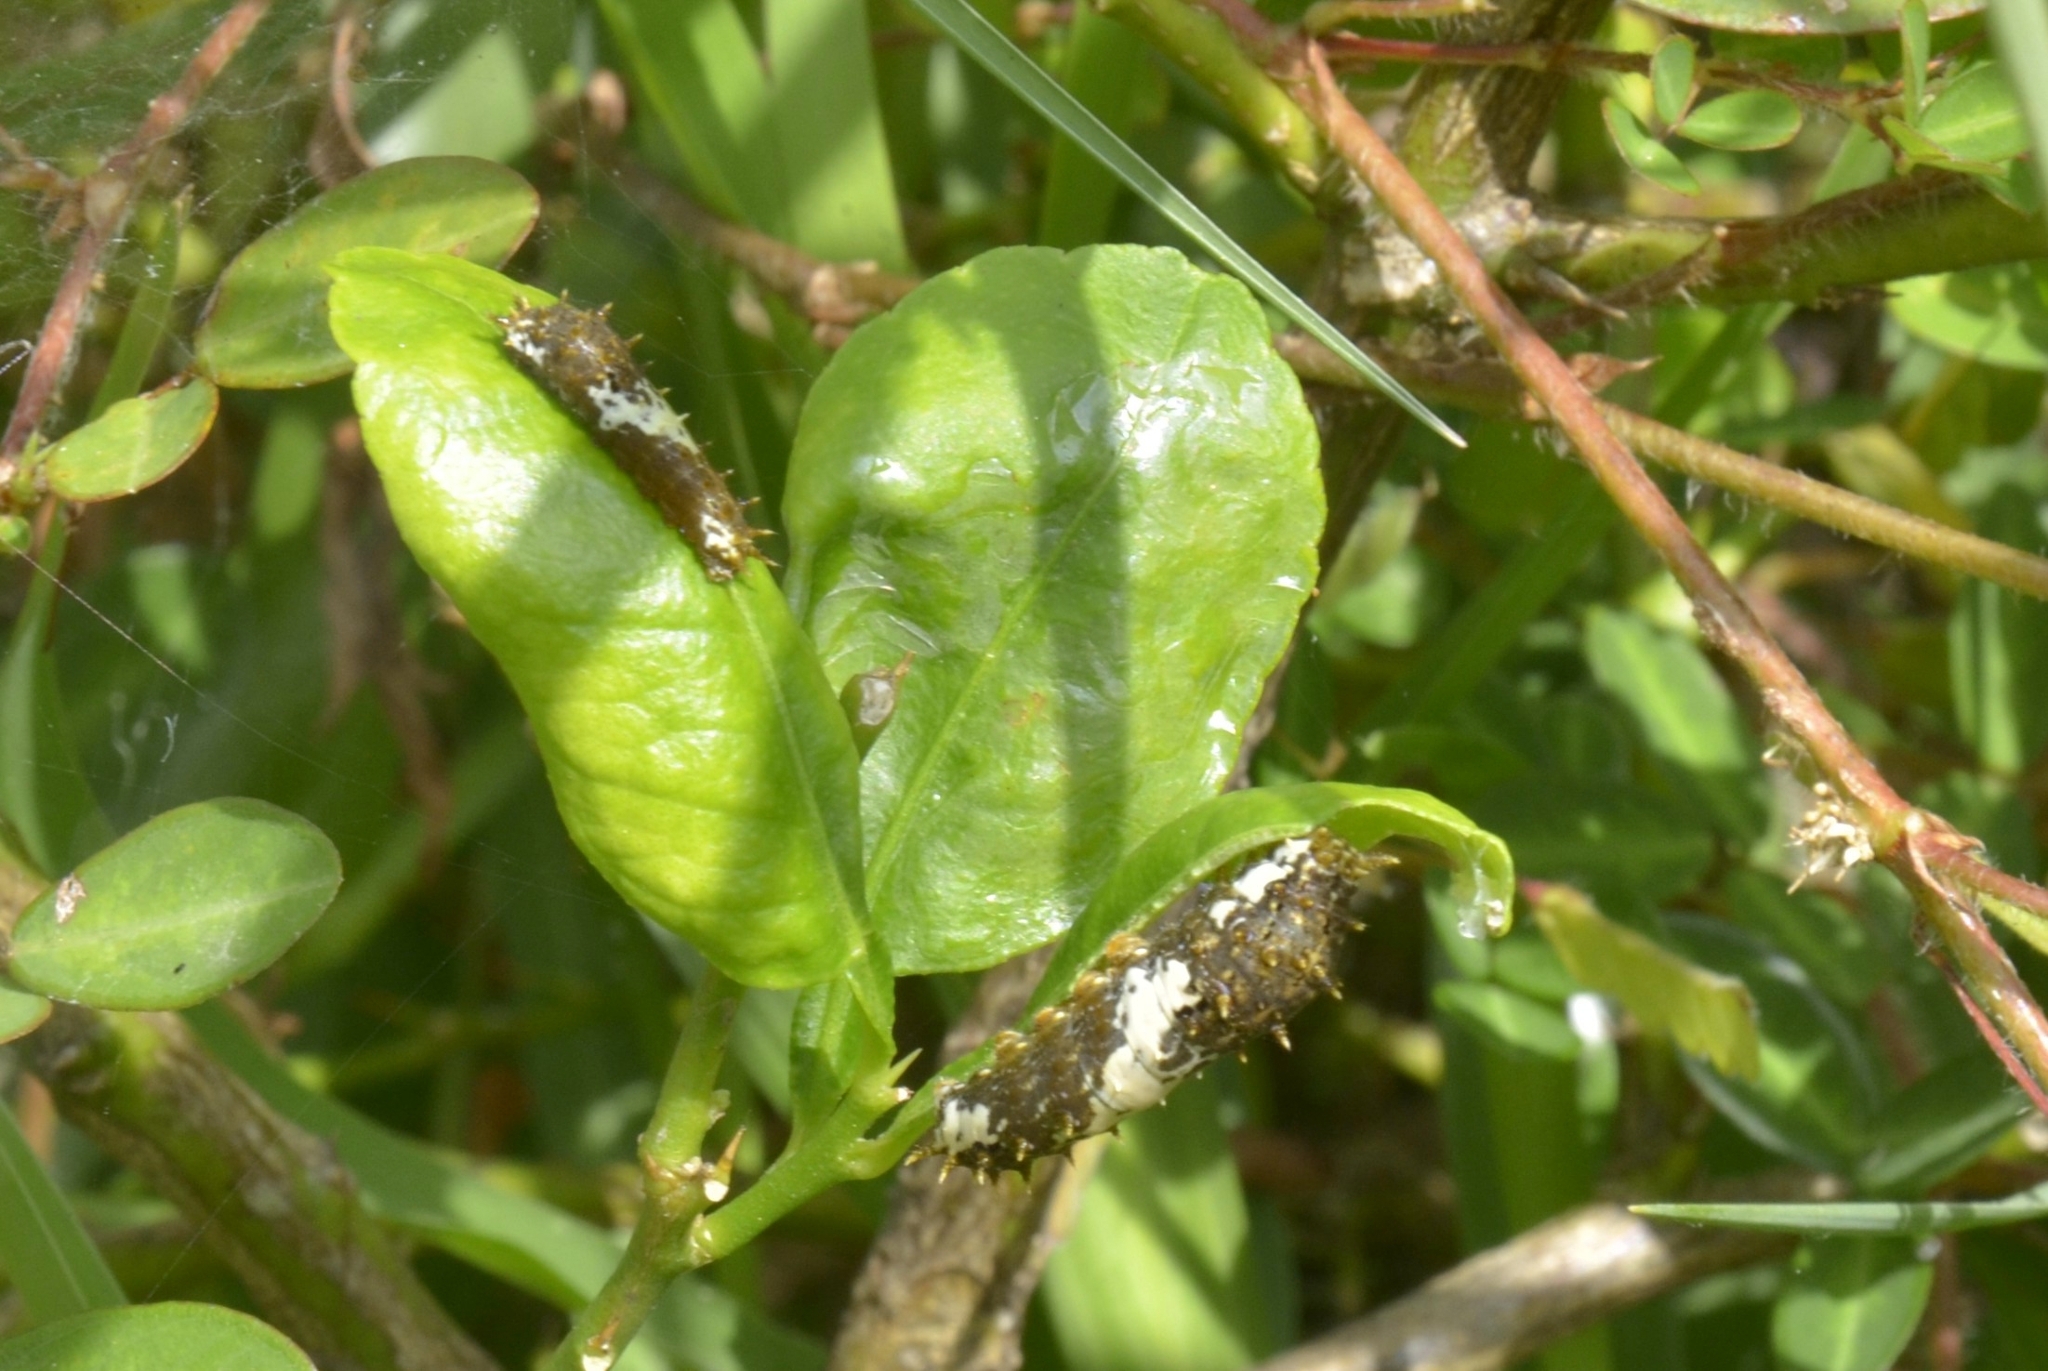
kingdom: Animalia
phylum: Arthropoda
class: Insecta
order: Lepidoptera
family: Papilionidae
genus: Papilio
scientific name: Papilio demoleus
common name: Lime butterfly
